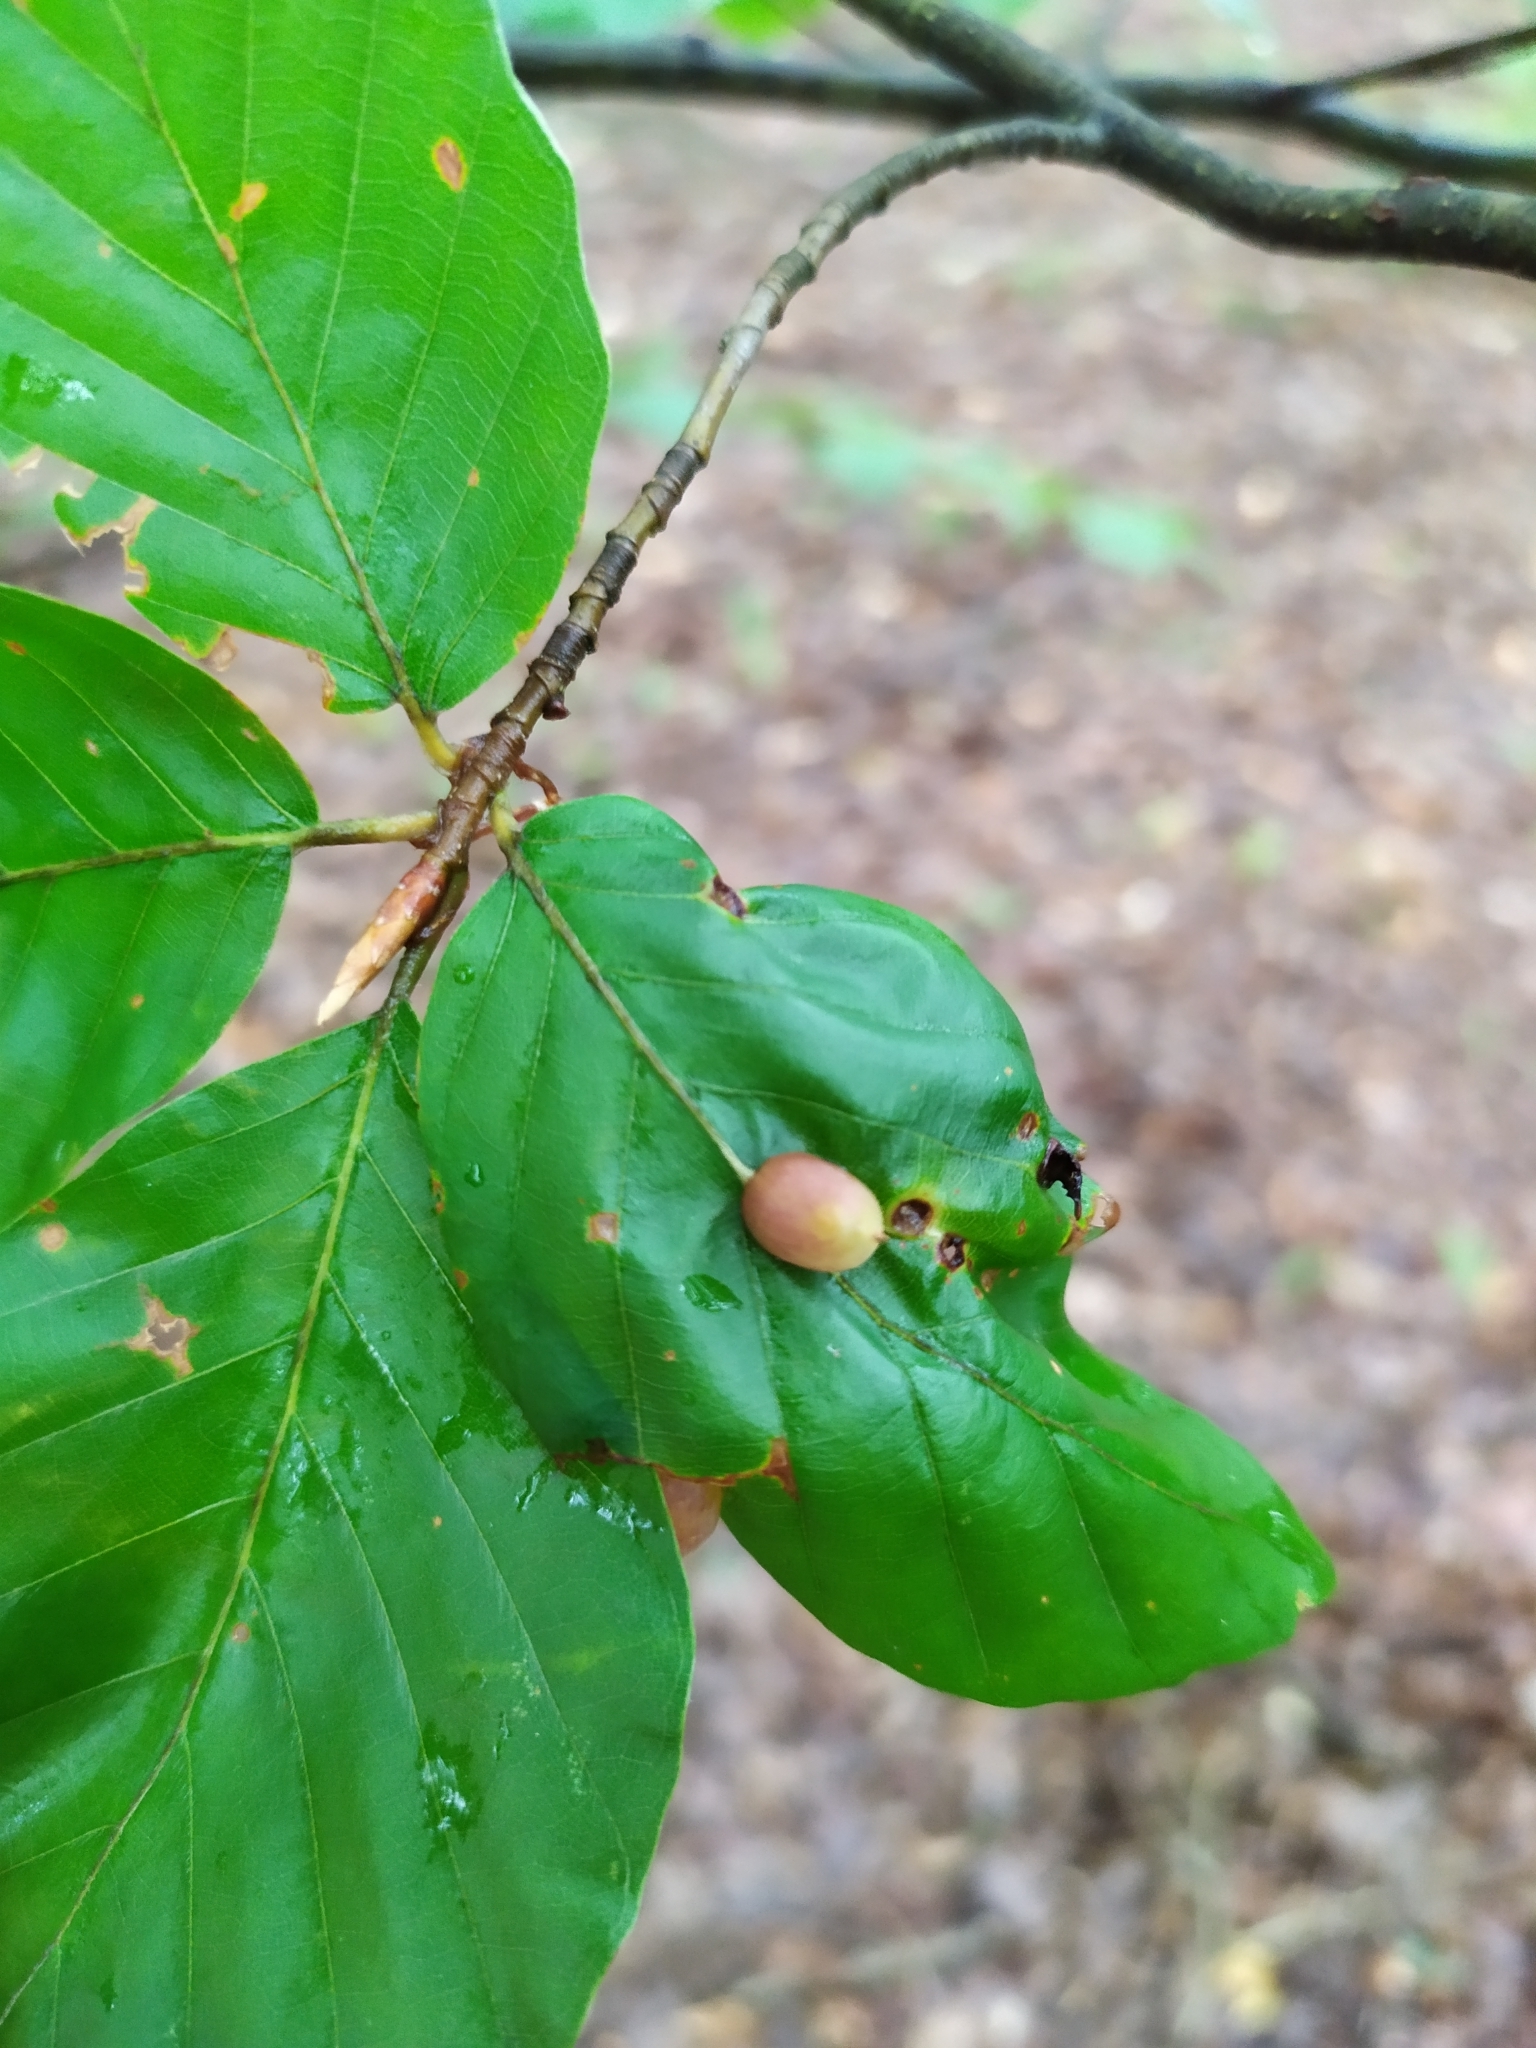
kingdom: Animalia
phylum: Arthropoda
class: Insecta
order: Diptera
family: Cecidomyiidae
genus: Mikiola
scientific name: Mikiola fagi
